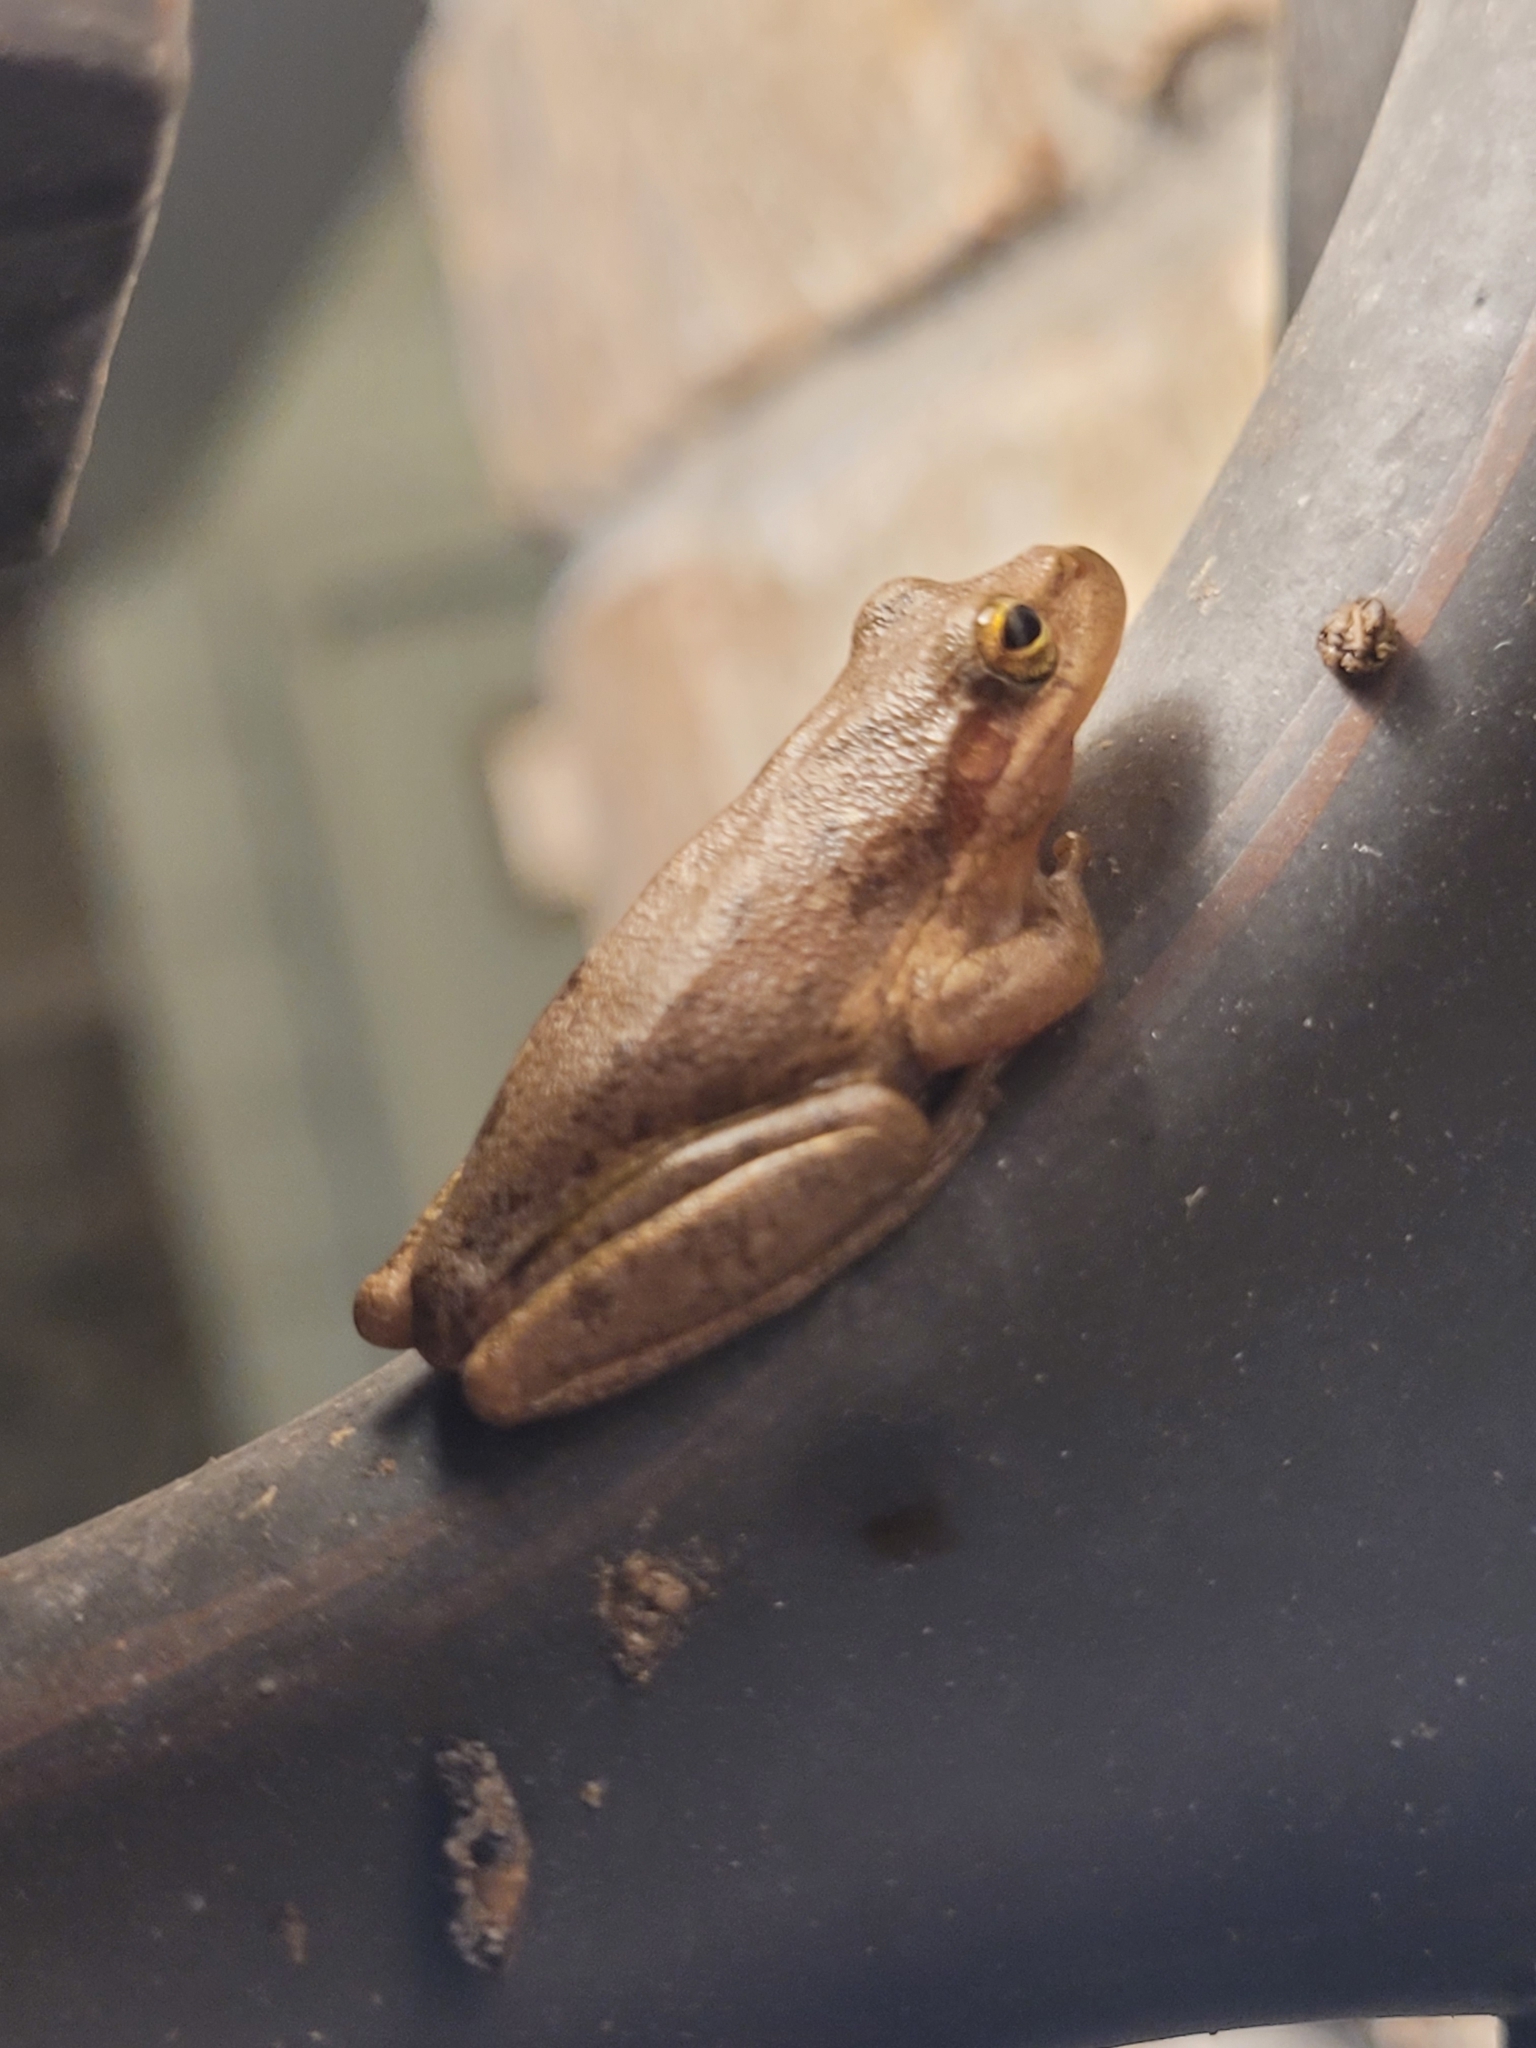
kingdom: Animalia
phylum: Chordata
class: Amphibia
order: Anura
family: Hylidae
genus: Dryophytes
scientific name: Dryophytes squirellus
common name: Squirrel treefrog
